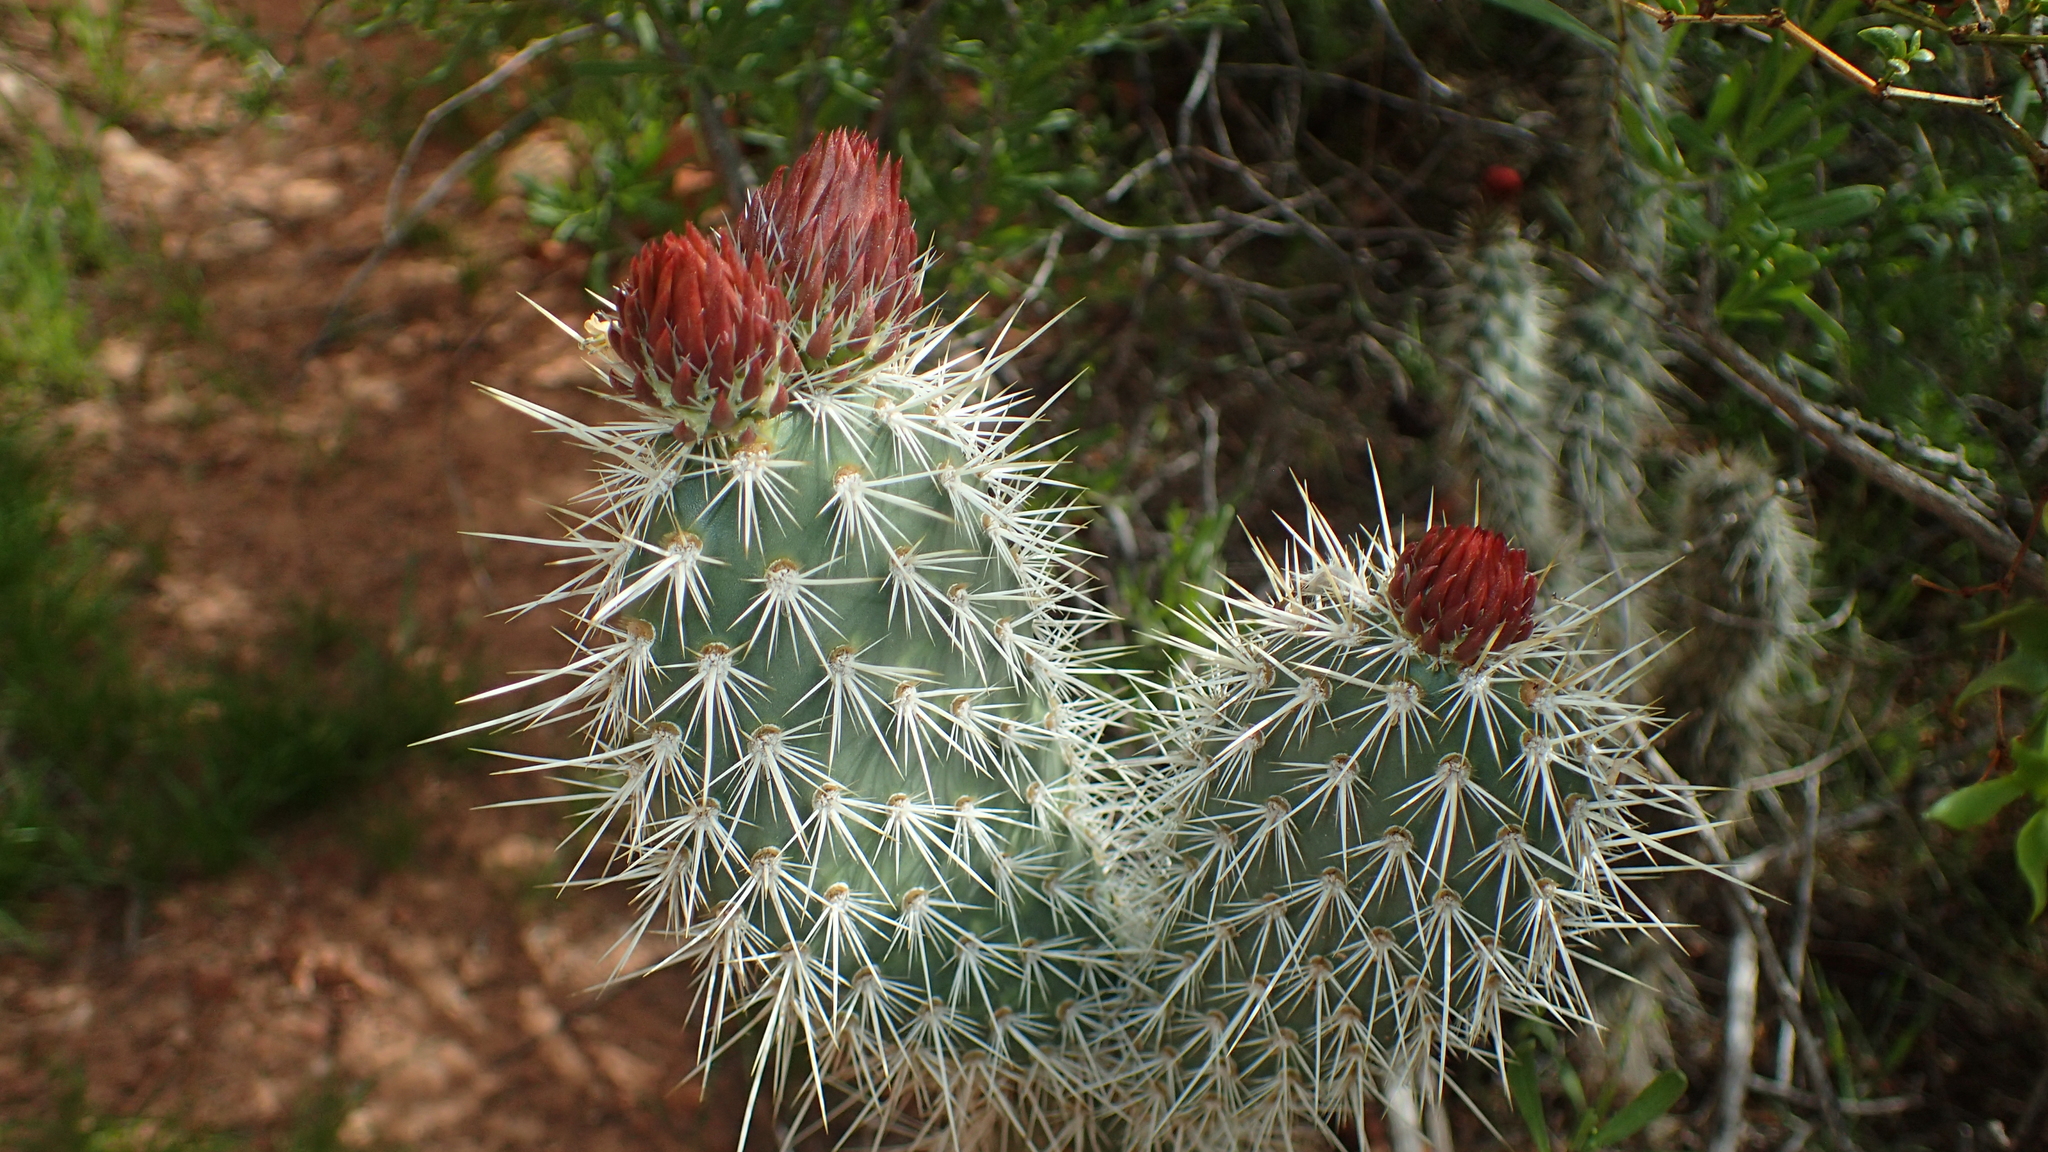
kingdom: Plantae
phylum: Tracheophyta
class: Magnoliopsida
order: Caryophyllales
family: Cactaceae
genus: Opuntia
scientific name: Opuntia polyacantha
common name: Plains prickly-pear
